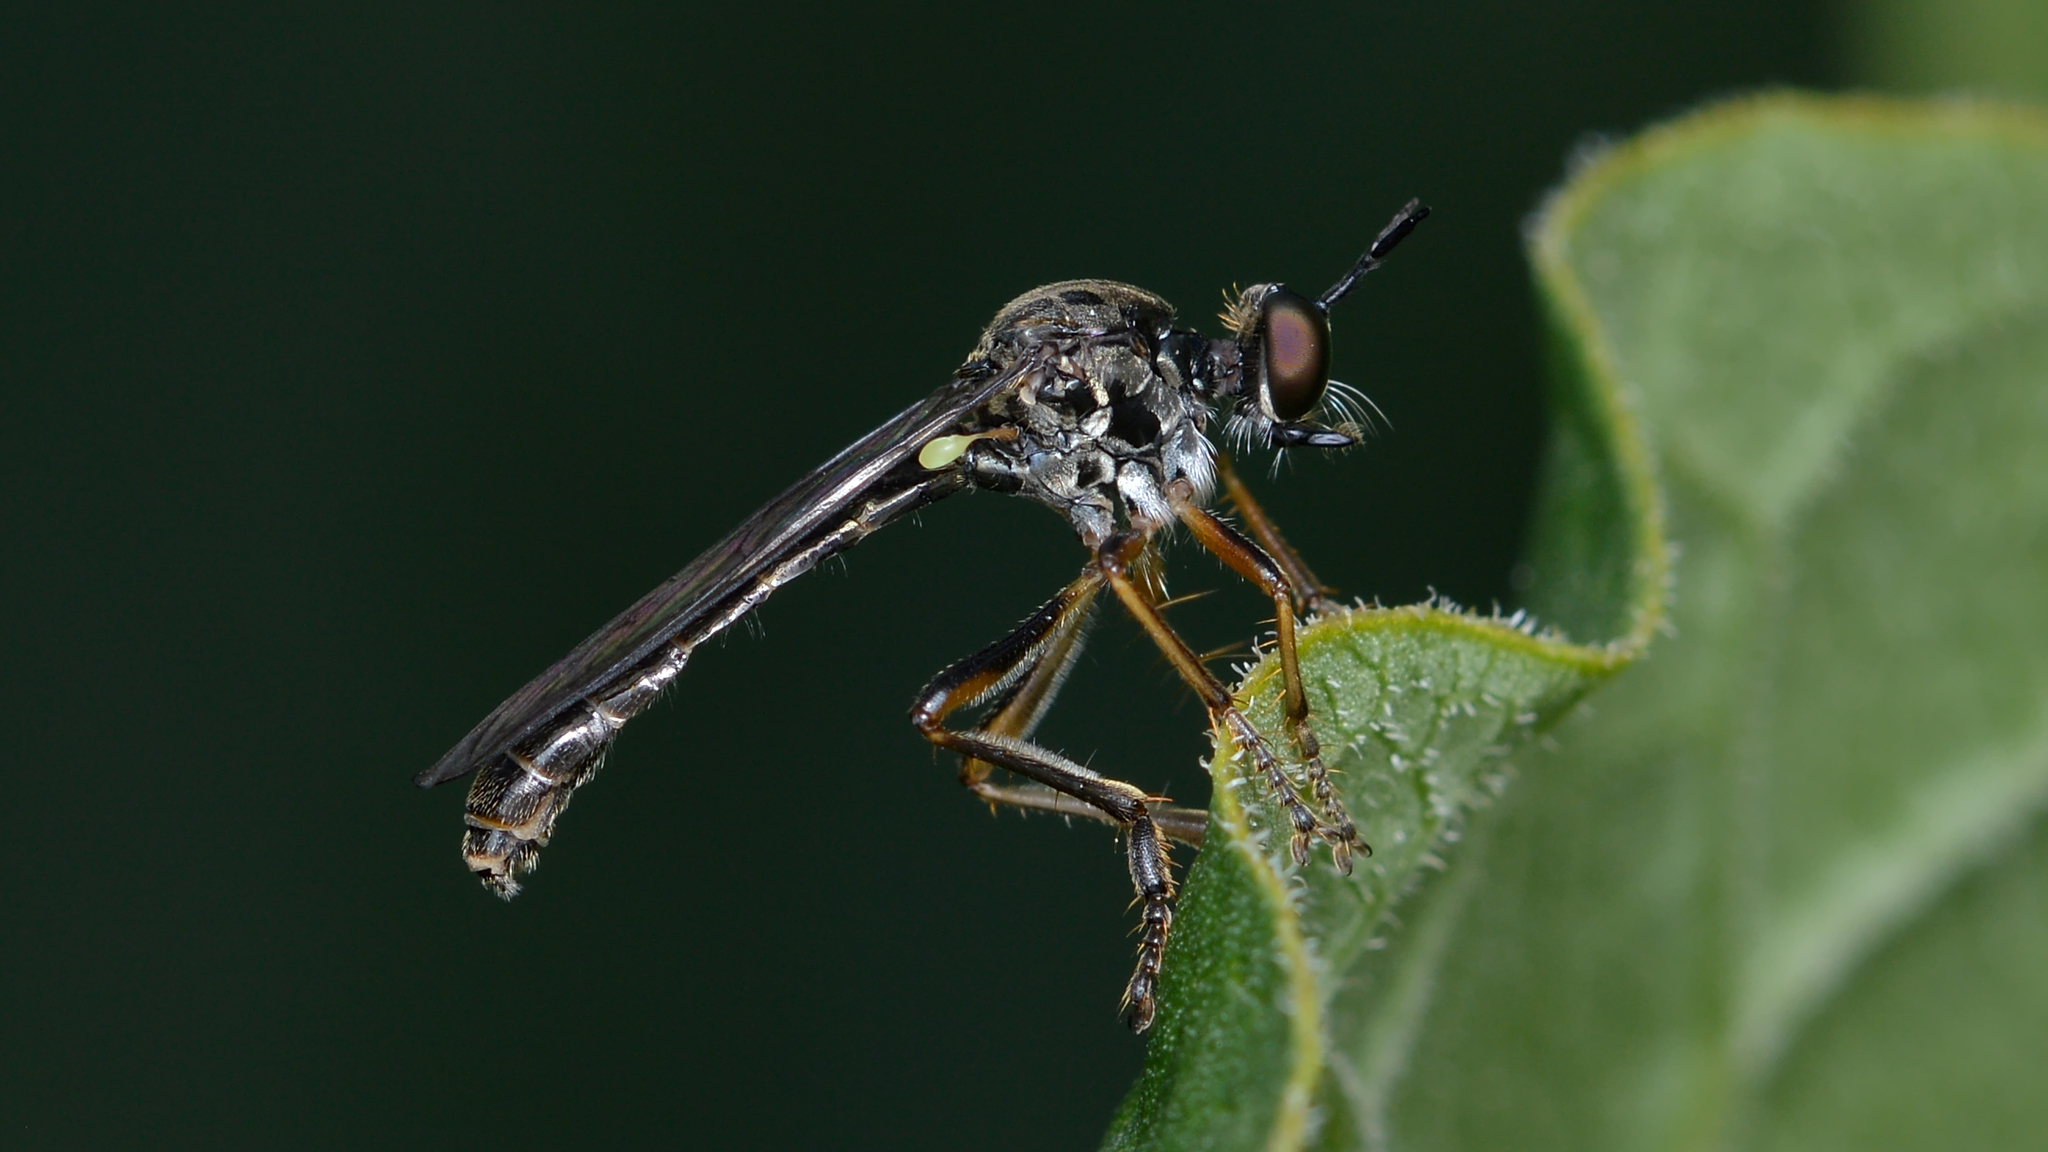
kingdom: Animalia
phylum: Arthropoda
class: Insecta
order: Diptera
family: Asilidae
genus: Dioctria
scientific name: Dioctria hyalipennis
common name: Stripe-legged robberfly
